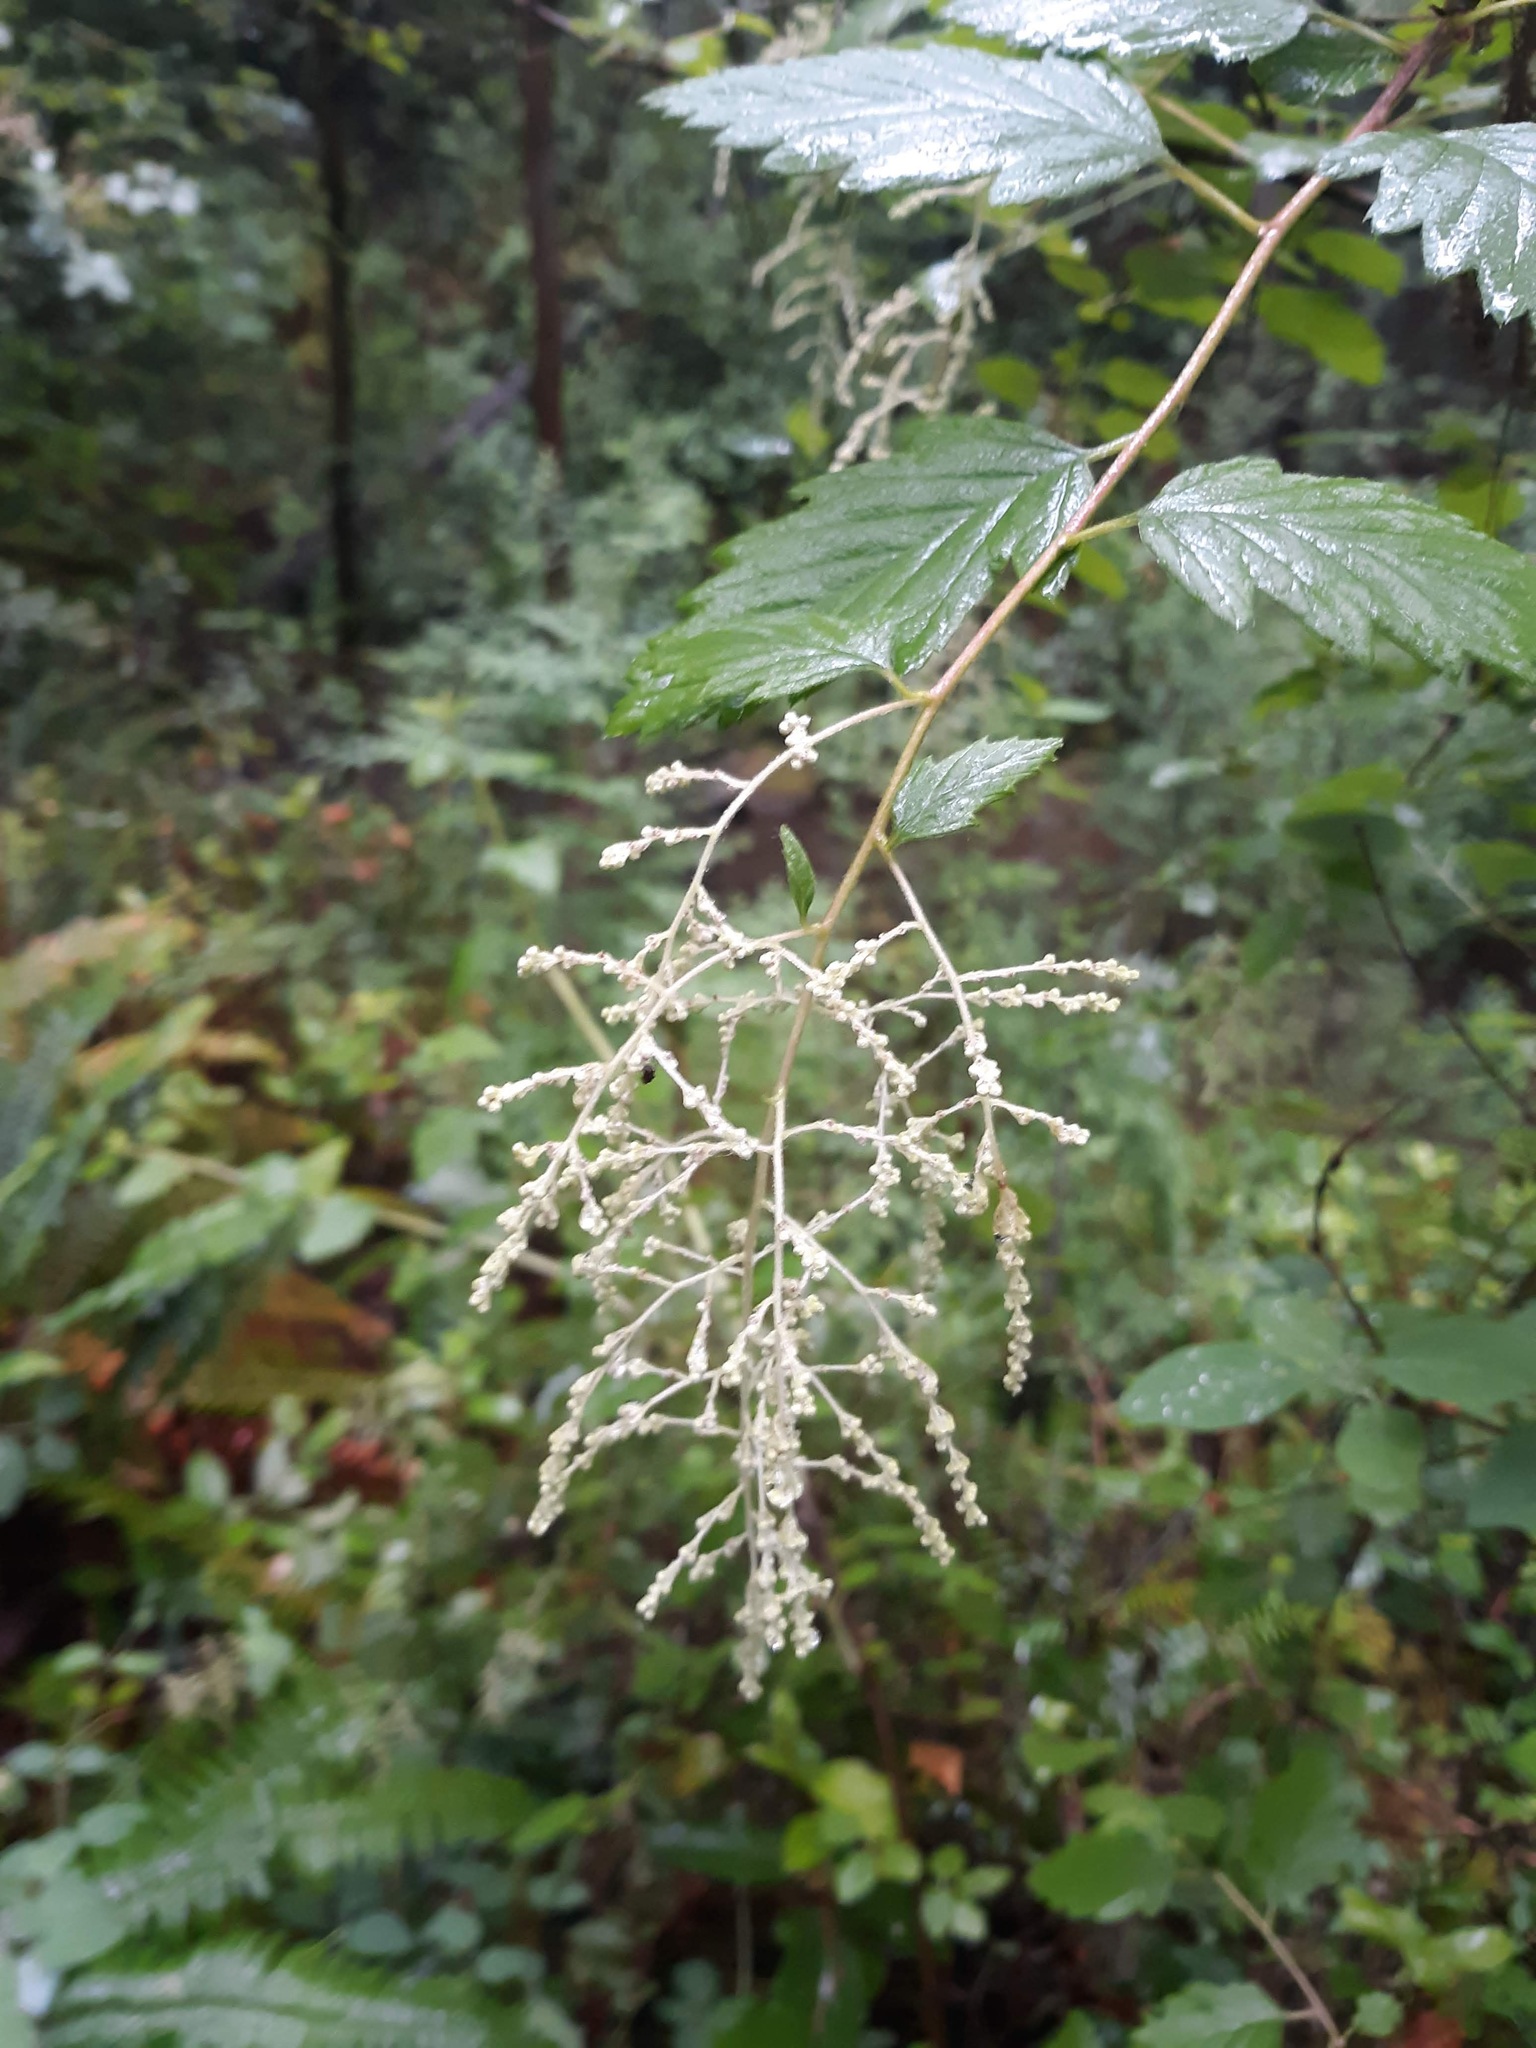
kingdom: Plantae
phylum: Tracheophyta
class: Magnoliopsida
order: Rosales
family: Rosaceae
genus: Holodiscus
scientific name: Holodiscus discolor
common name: Oceanspray
